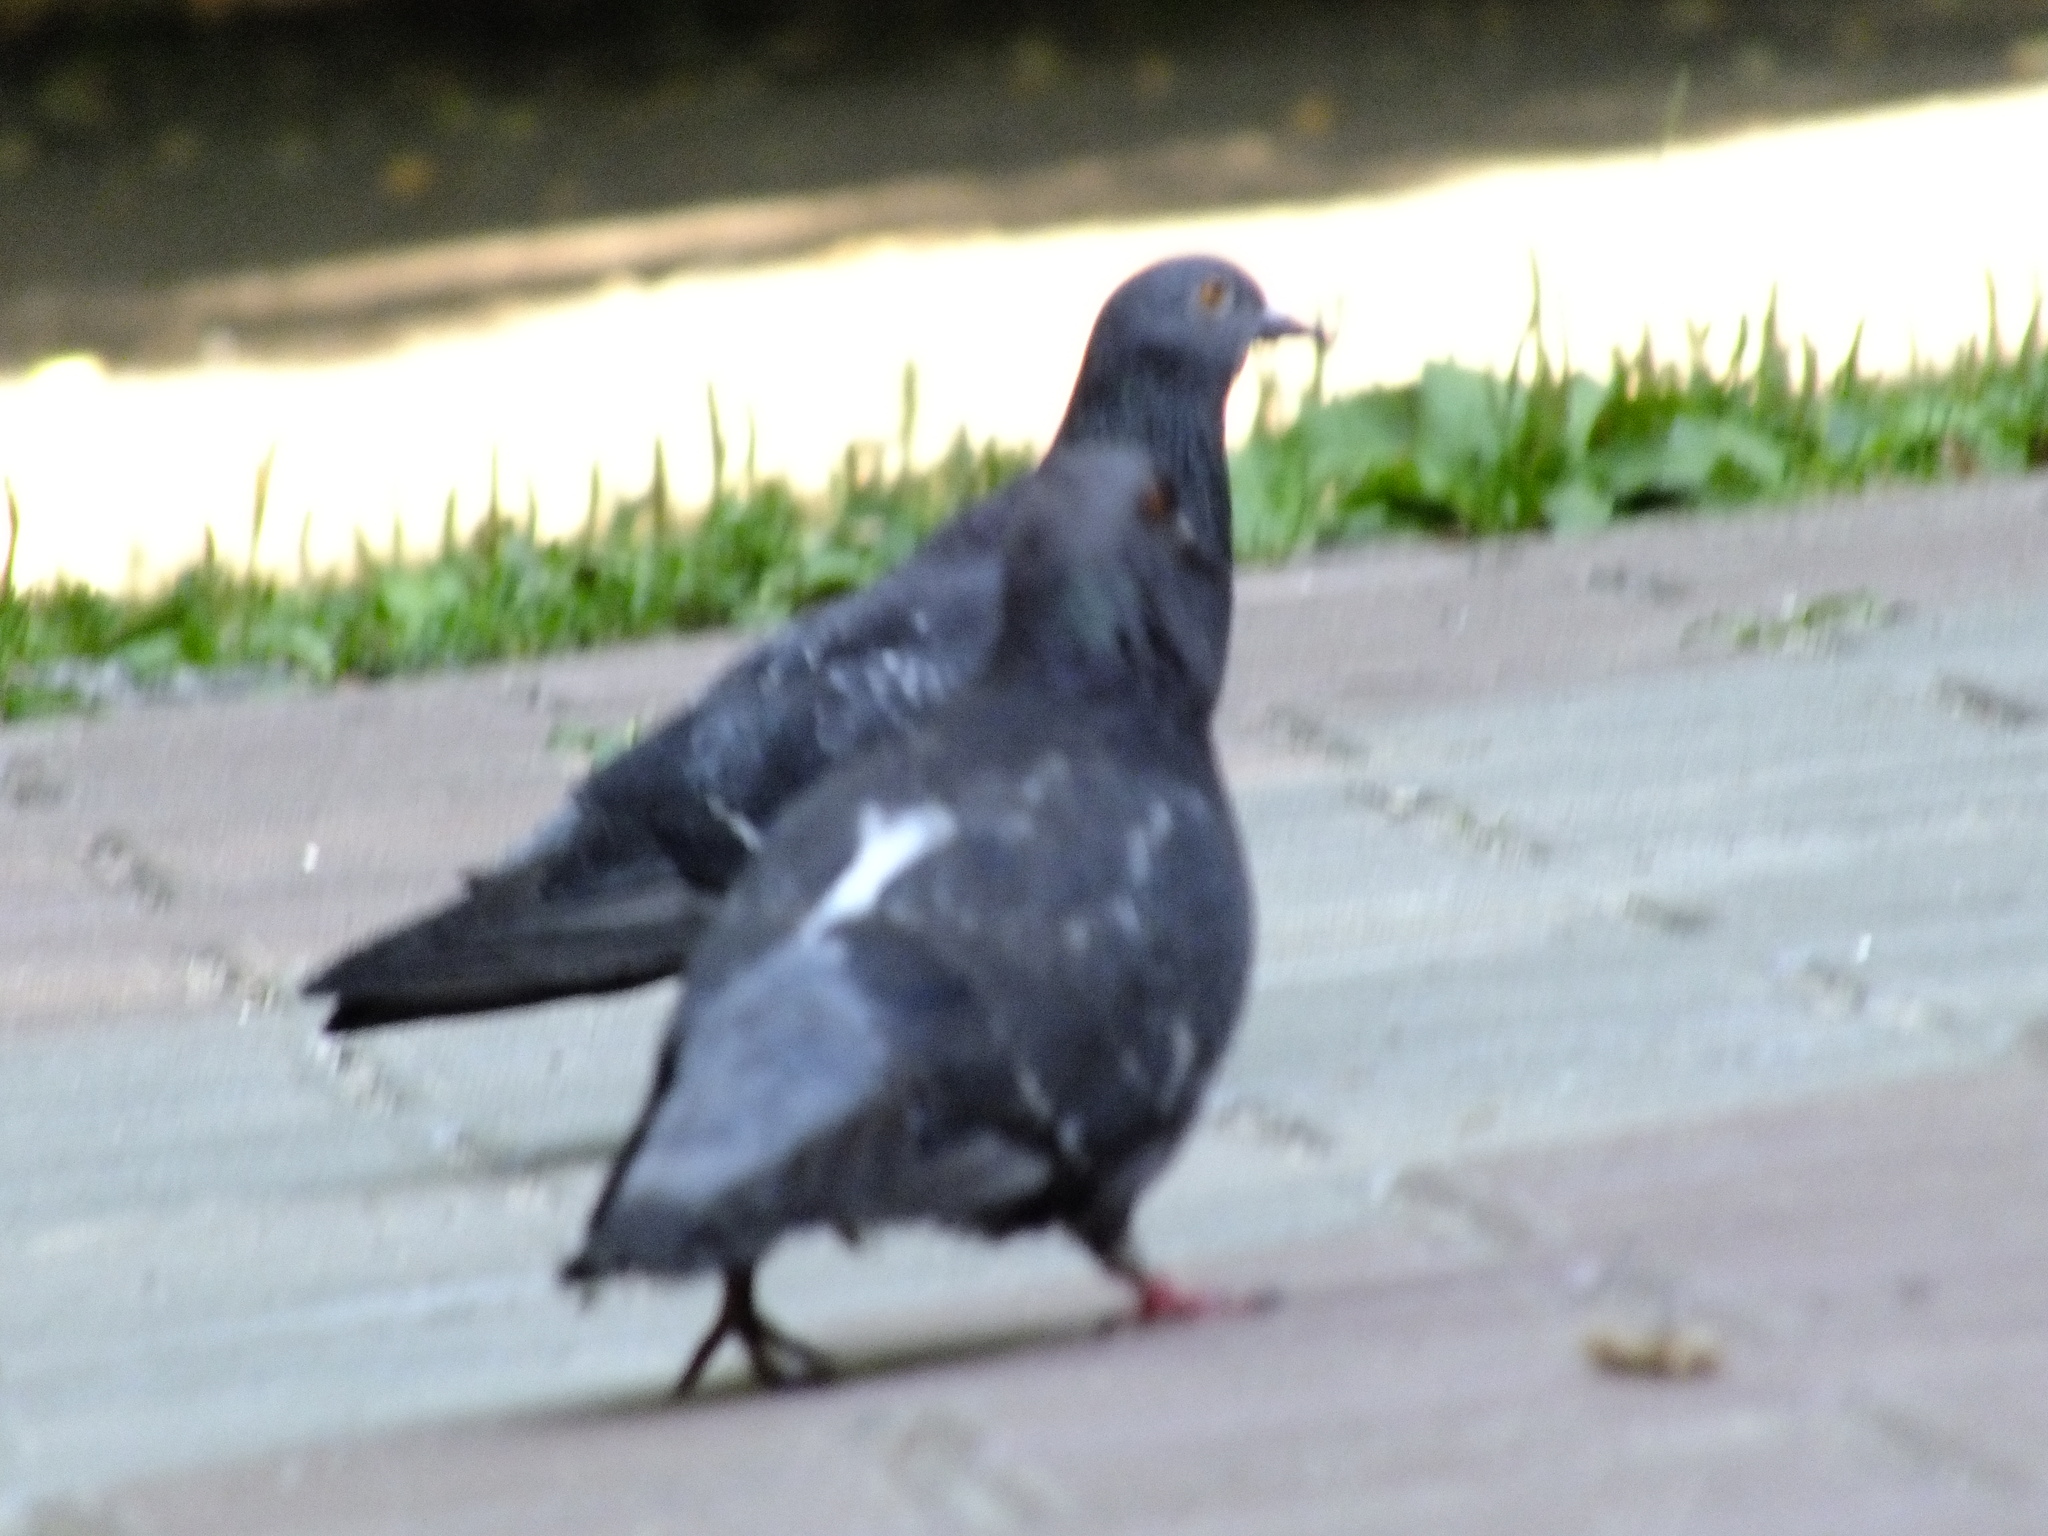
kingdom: Animalia
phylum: Chordata
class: Aves
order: Columbiformes
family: Columbidae
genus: Columba
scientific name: Columba livia
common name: Rock pigeon
